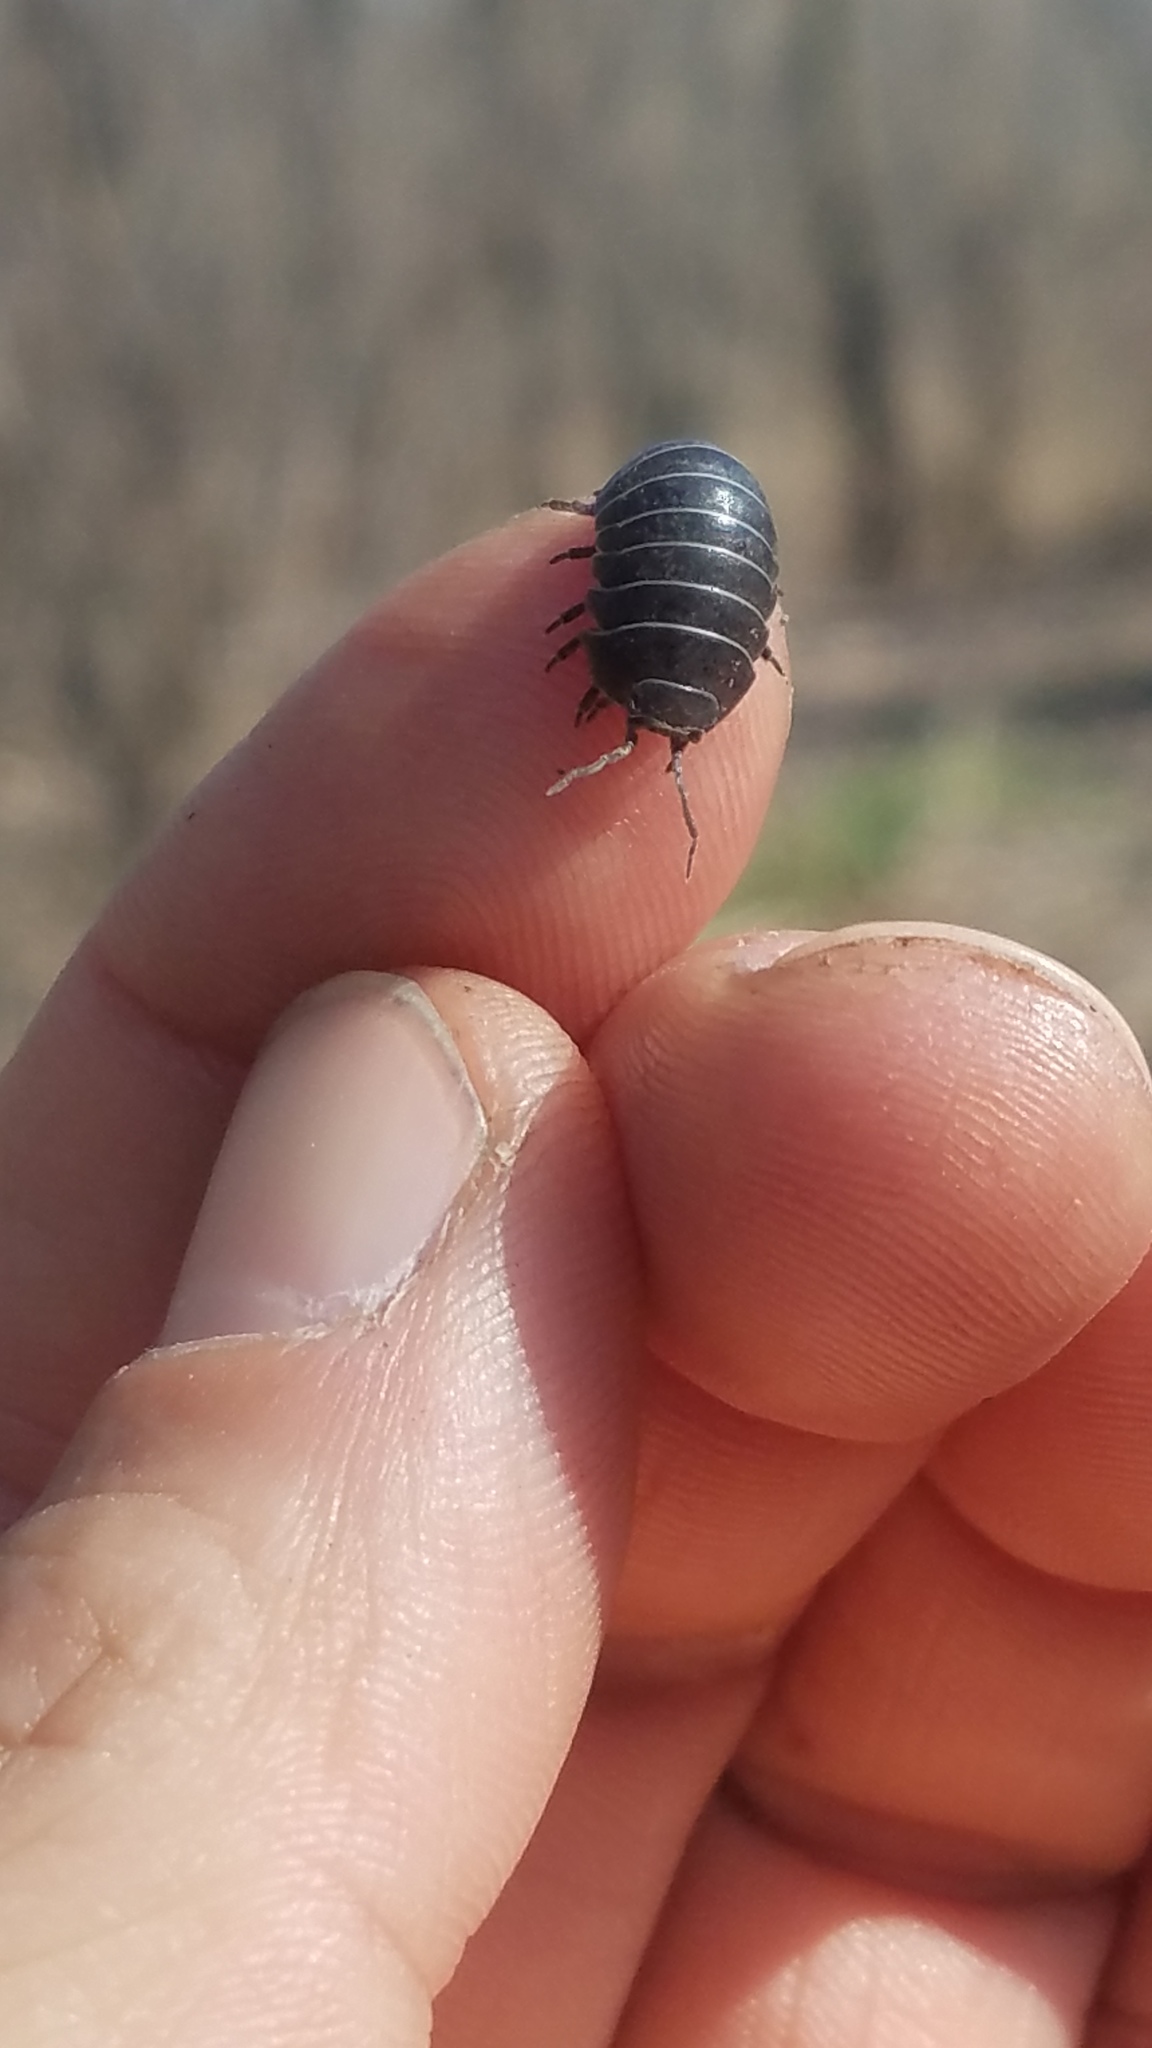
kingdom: Animalia
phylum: Arthropoda
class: Malacostraca
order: Isopoda
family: Armadillidiidae
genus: Armadillidium
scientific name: Armadillidium vulgare
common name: Common pill woodlouse
